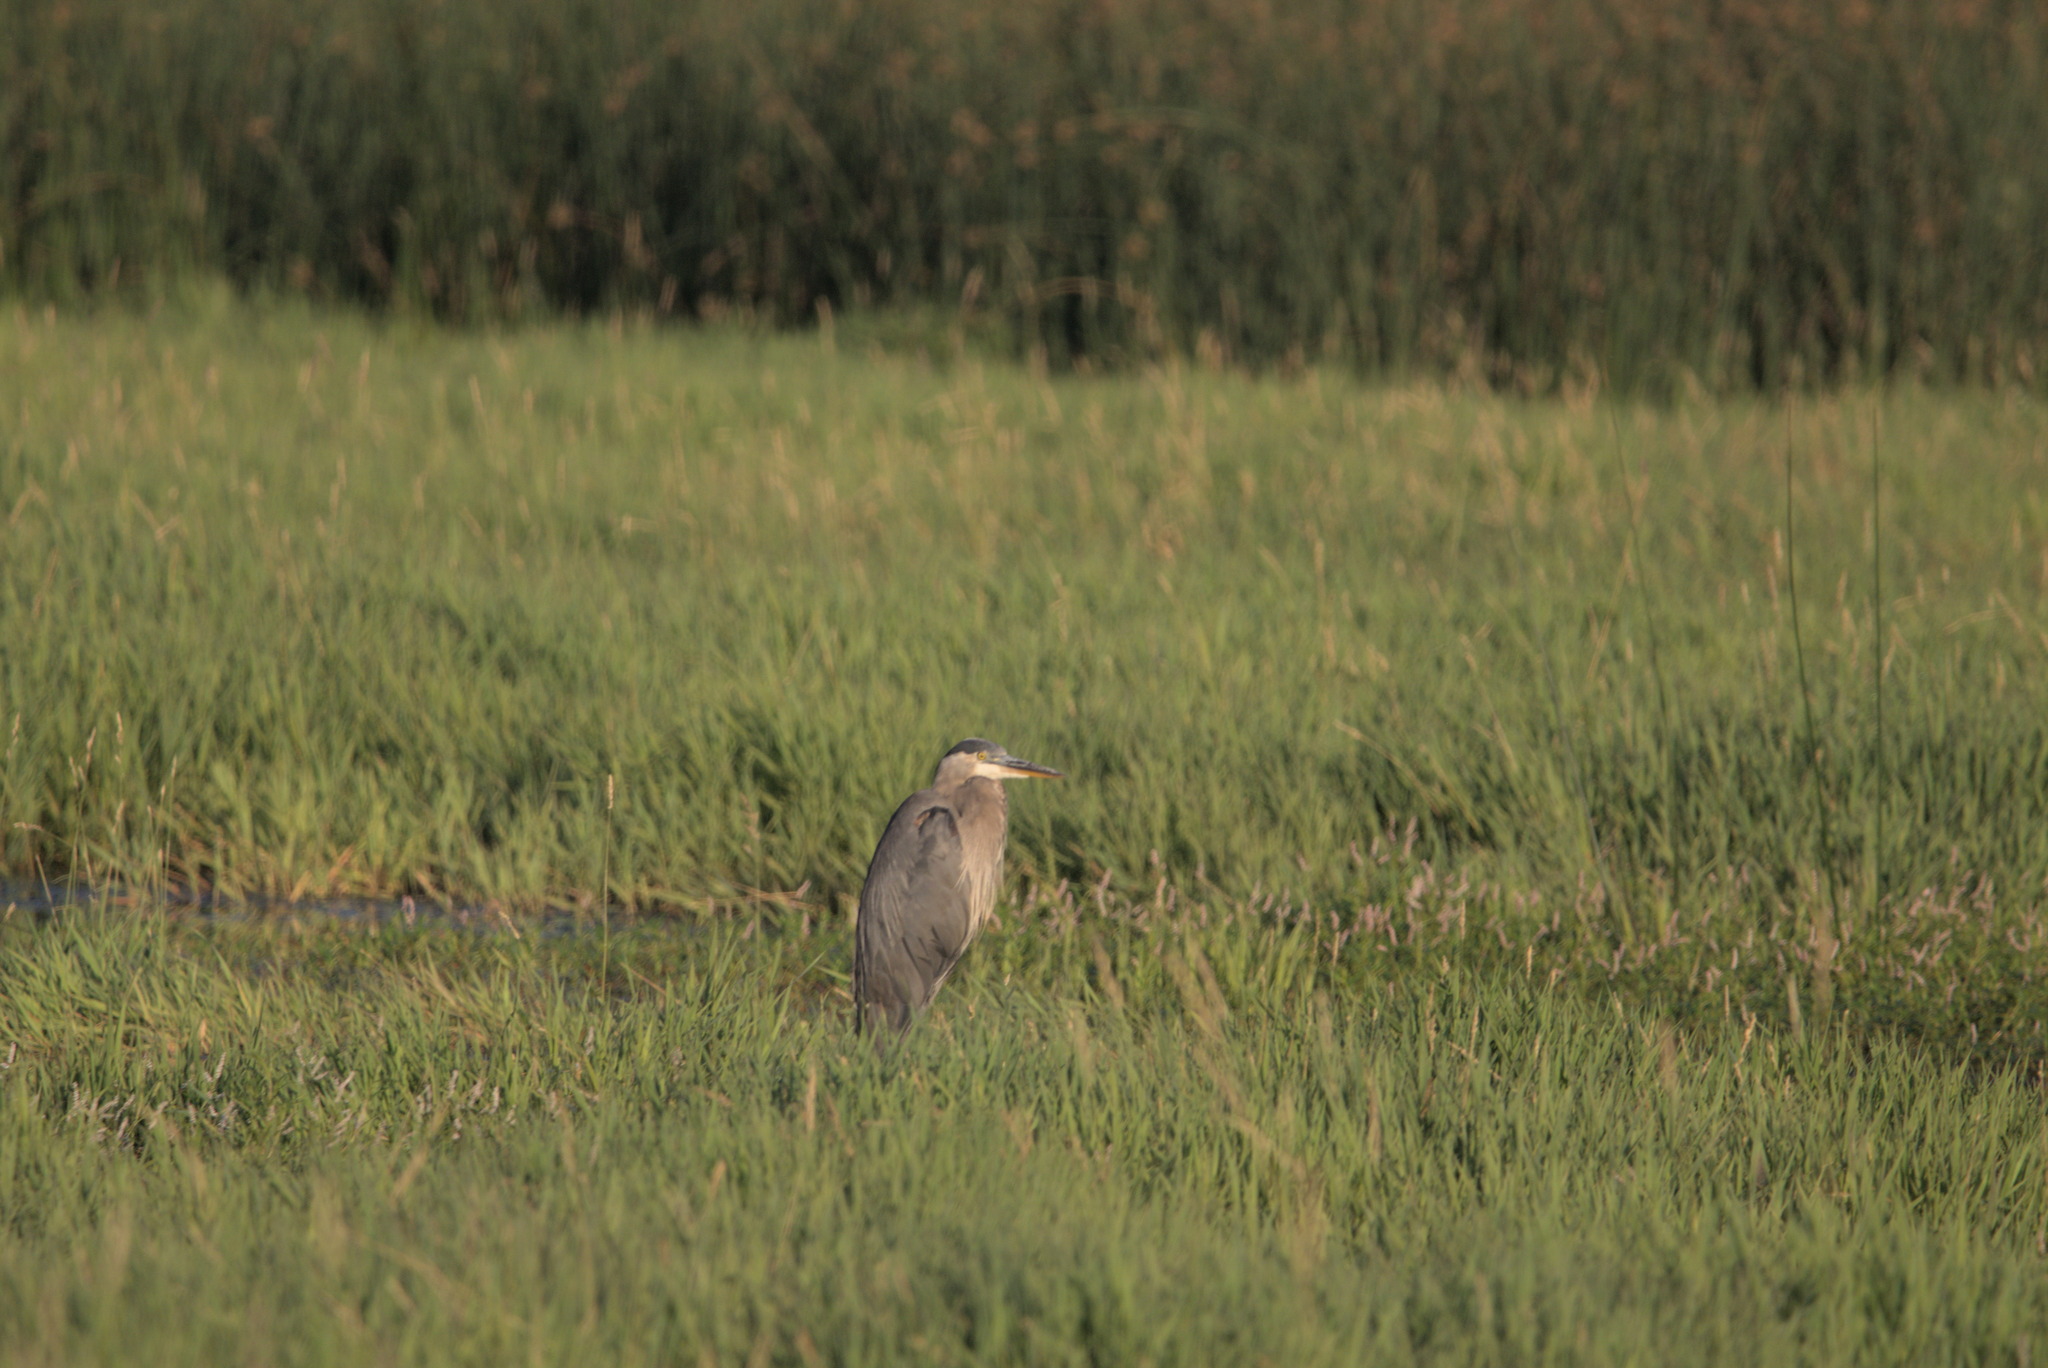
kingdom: Animalia
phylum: Chordata
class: Aves
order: Pelecaniformes
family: Ardeidae
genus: Ardea
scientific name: Ardea herodias
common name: Great blue heron
